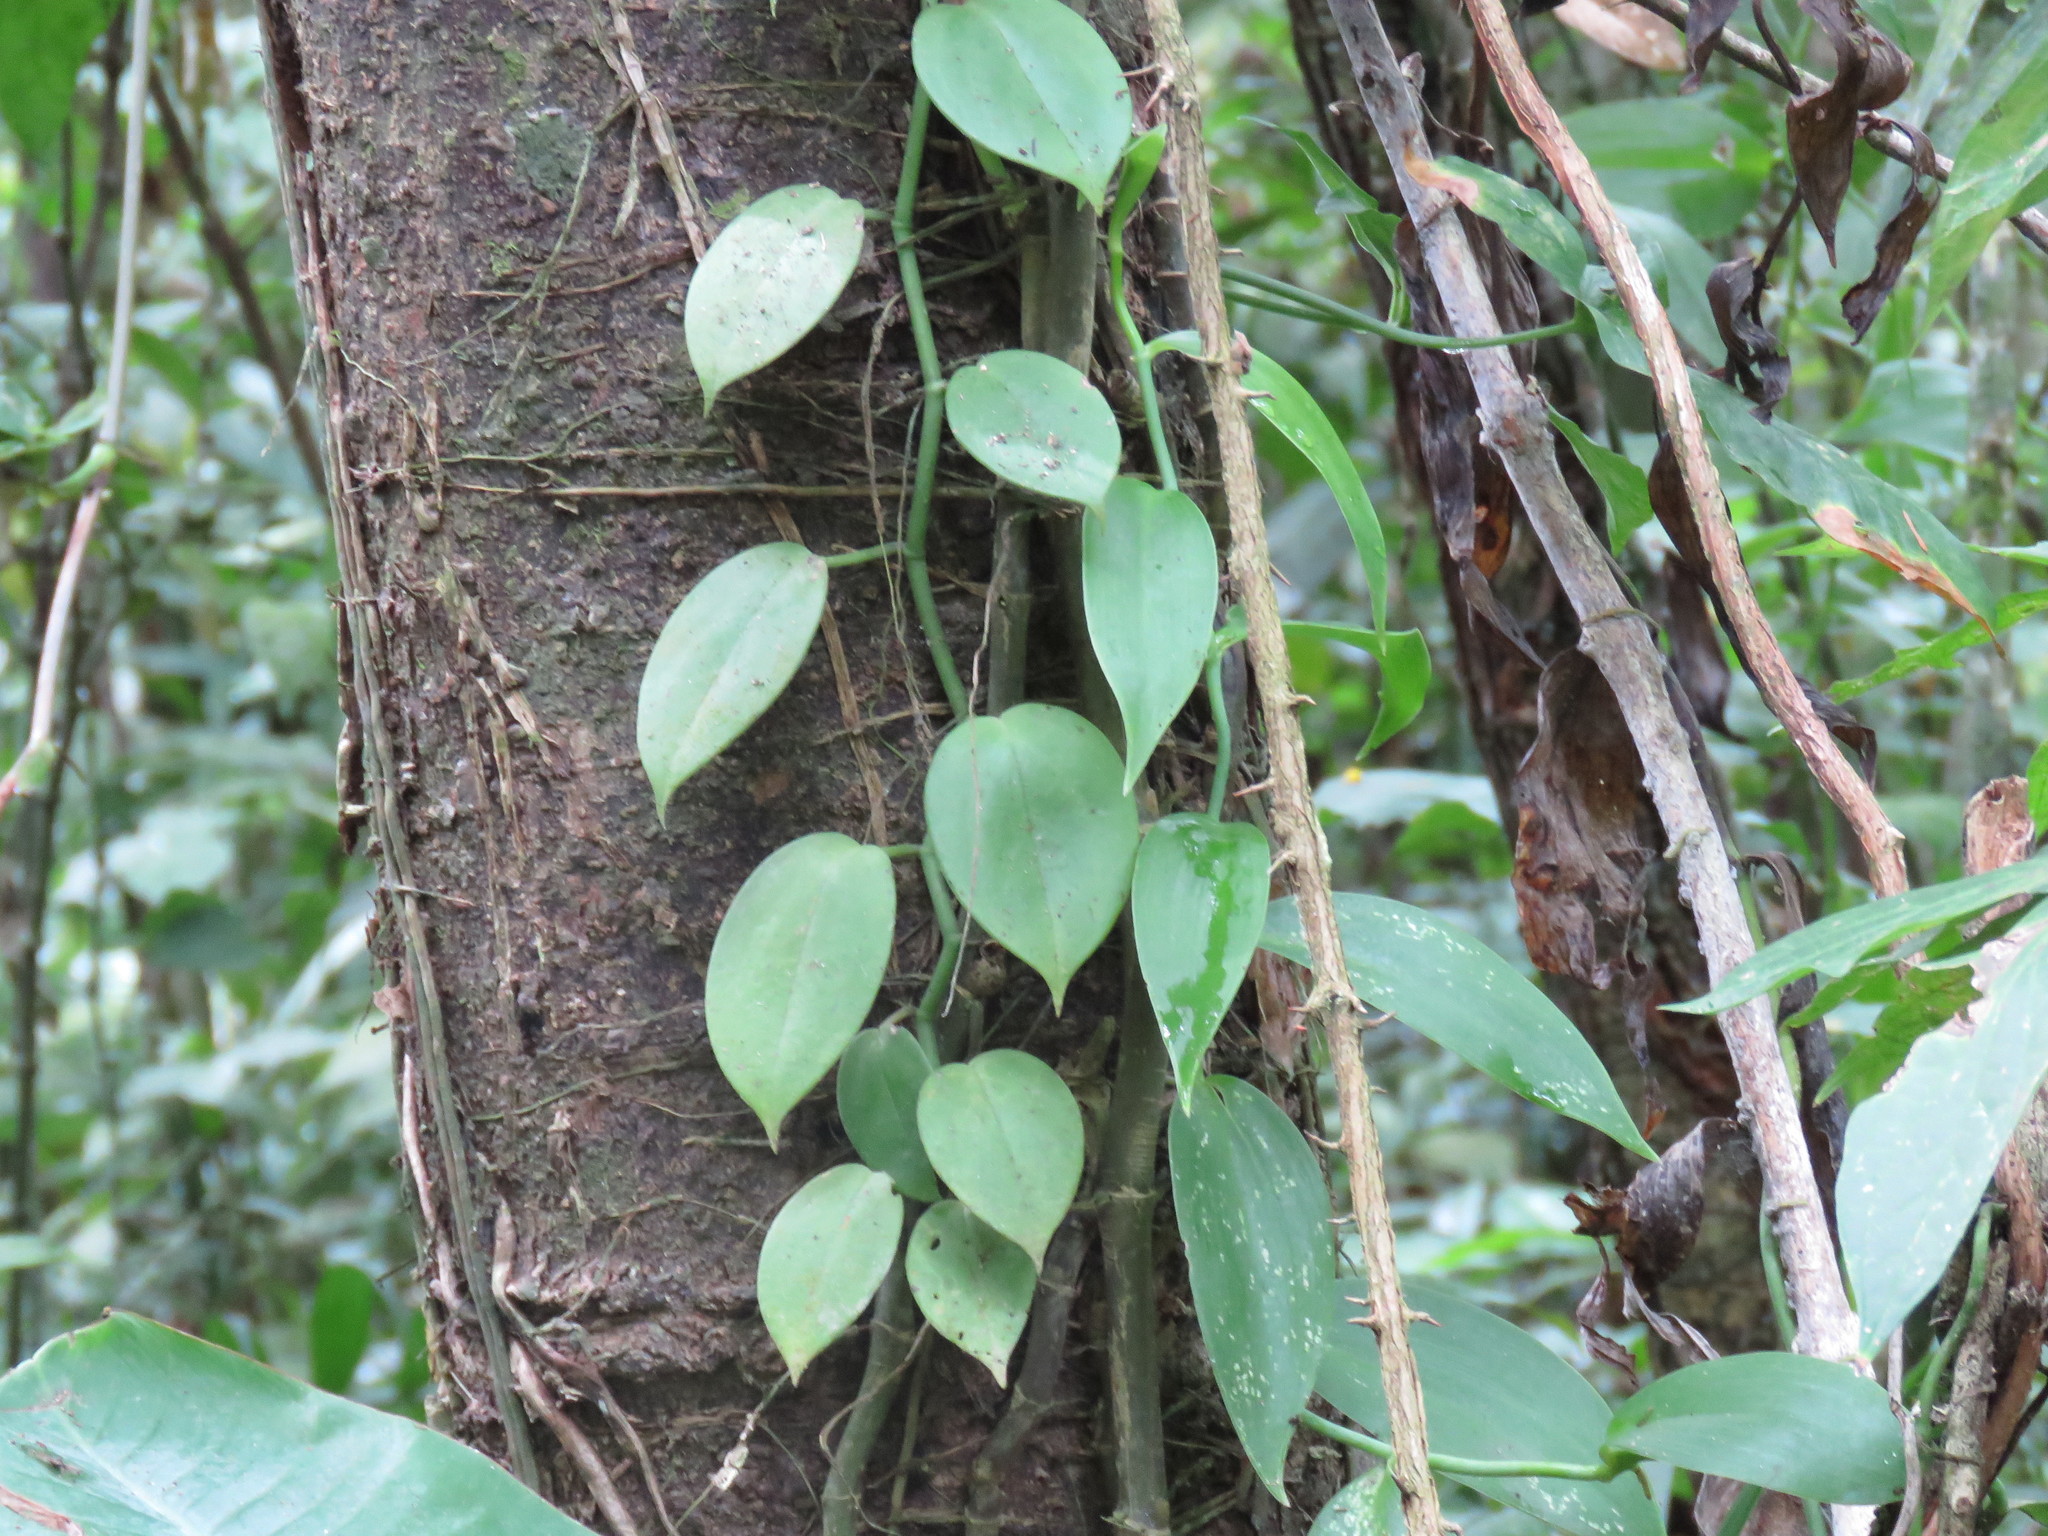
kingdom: Plantae
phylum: Tracheophyta
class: Liliopsida
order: Asparagales
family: Orchidaceae
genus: Vanilla
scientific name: Vanilla inodora
